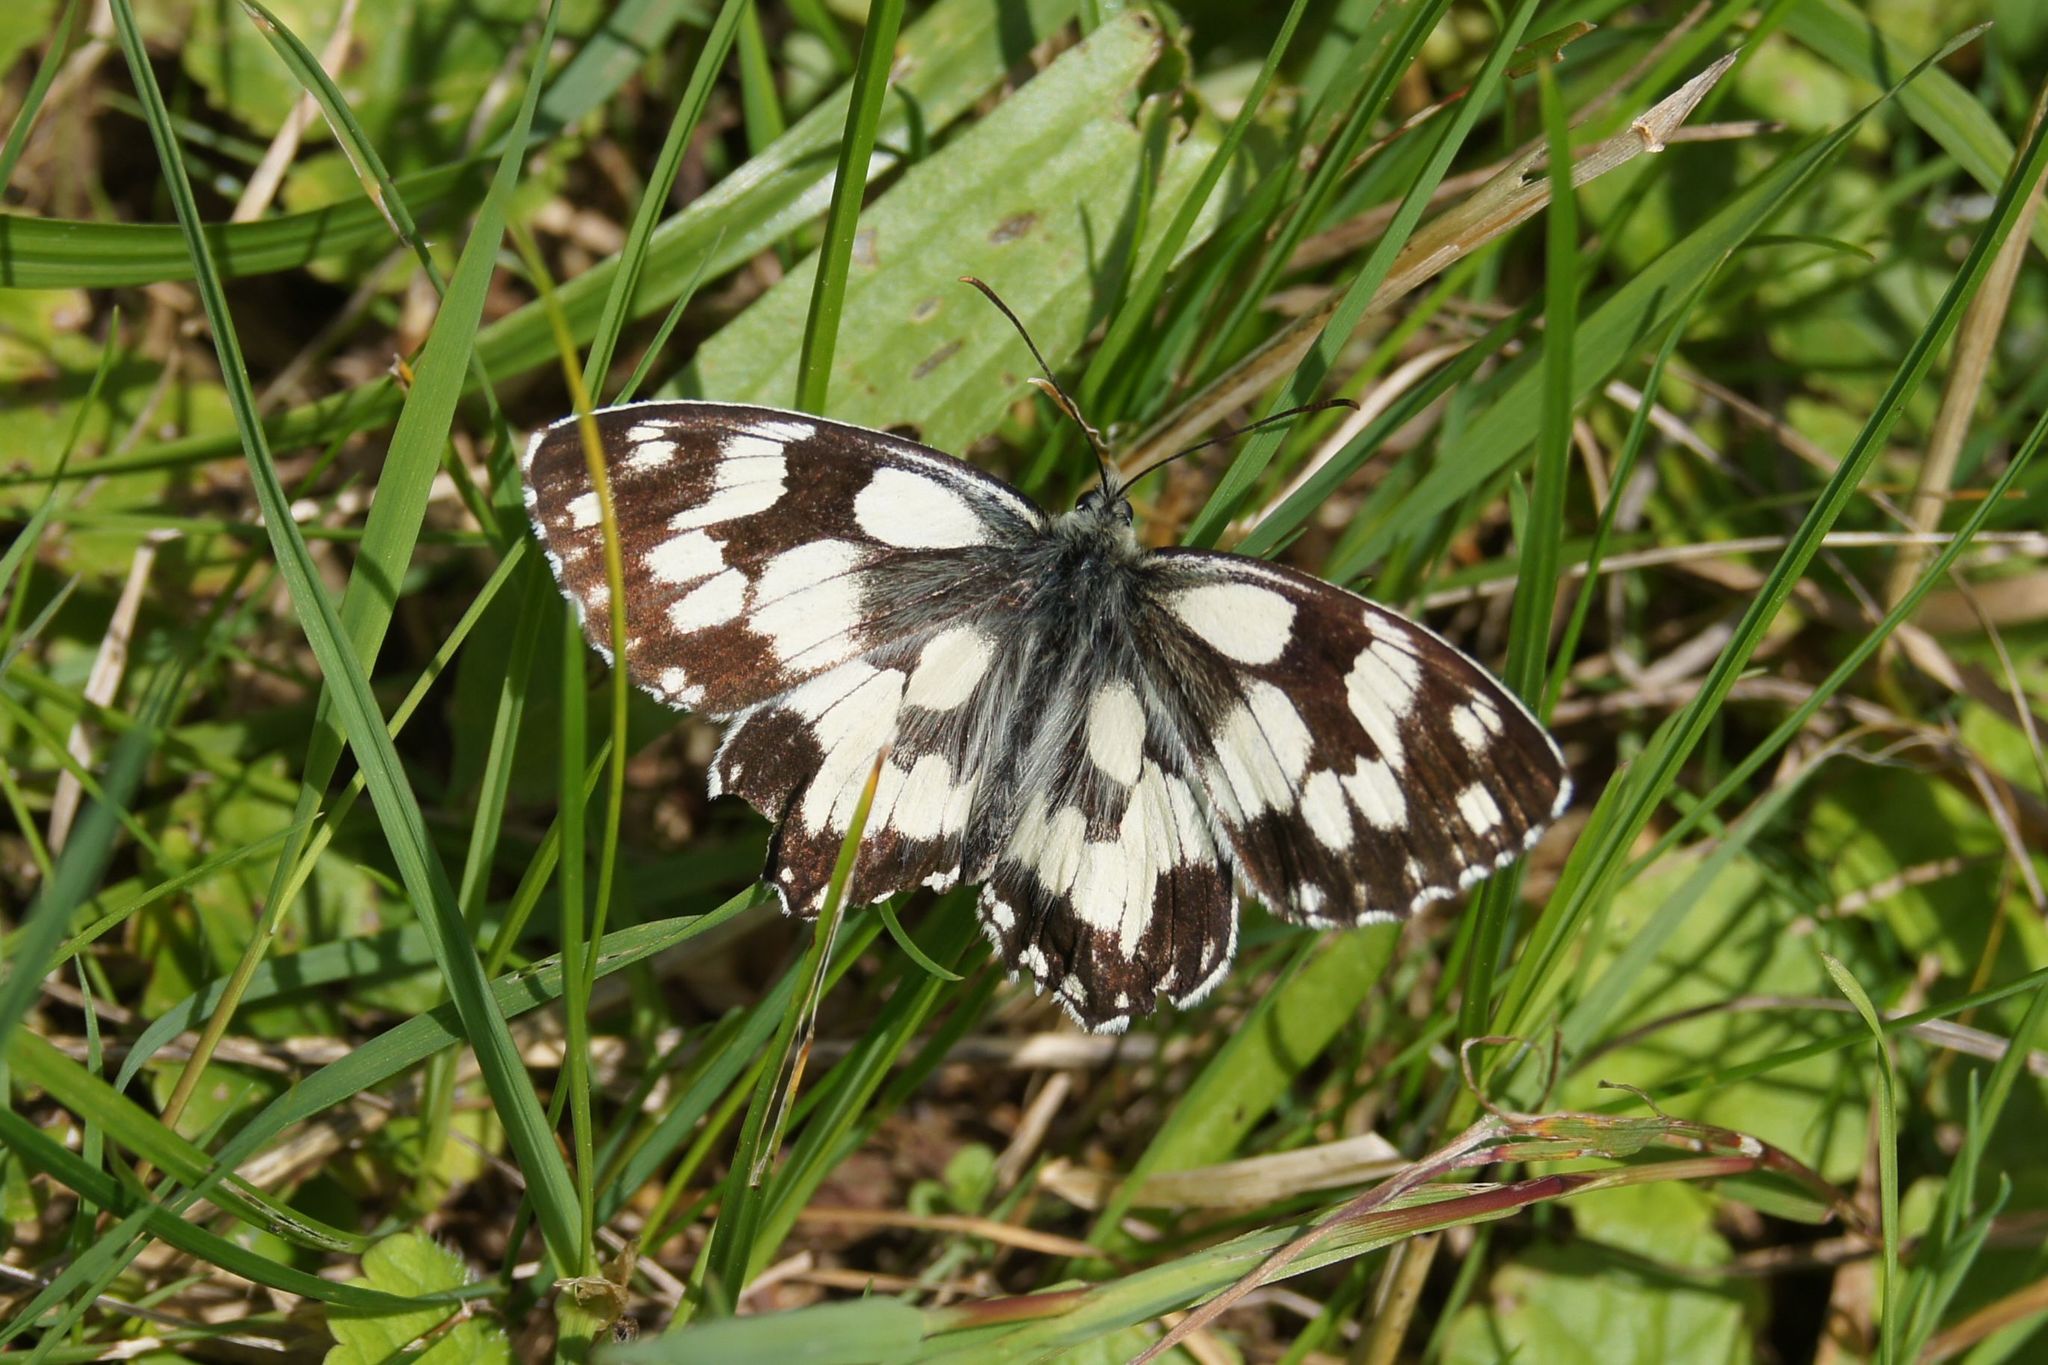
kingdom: Animalia
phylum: Arthropoda
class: Insecta
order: Lepidoptera
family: Nymphalidae
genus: Melanargia
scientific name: Melanargia galathea
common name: Marbled white
